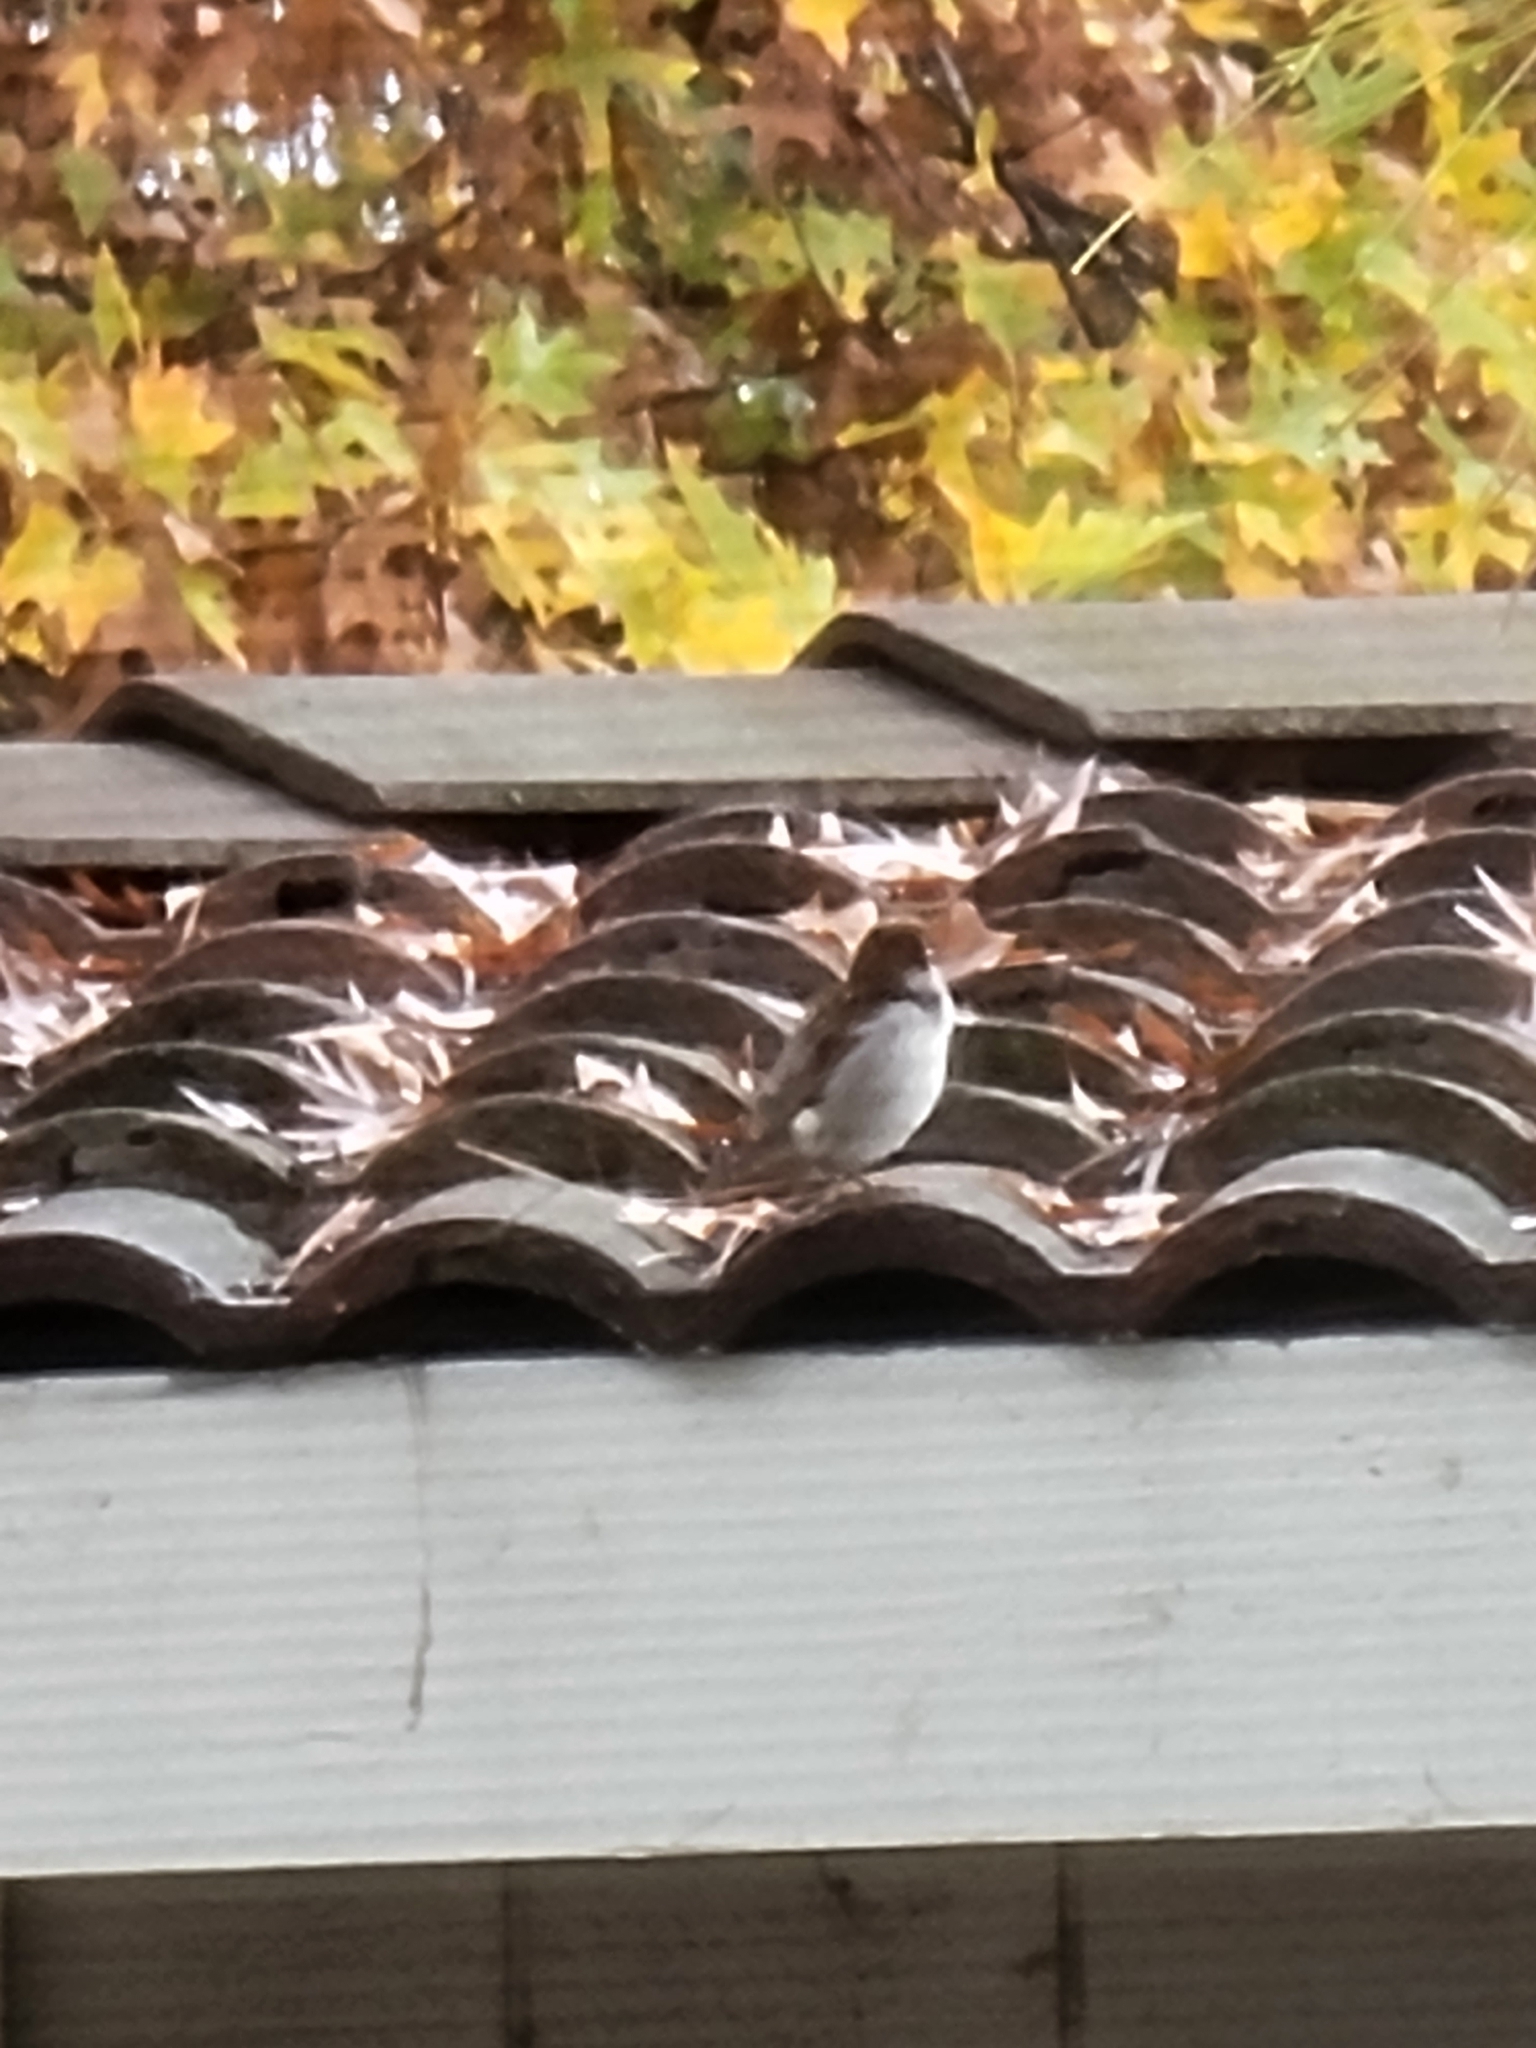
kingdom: Animalia
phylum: Chordata
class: Aves
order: Passeriformes
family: Passeridae
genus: Passer
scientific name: Passer domesticus
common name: House sparrow
